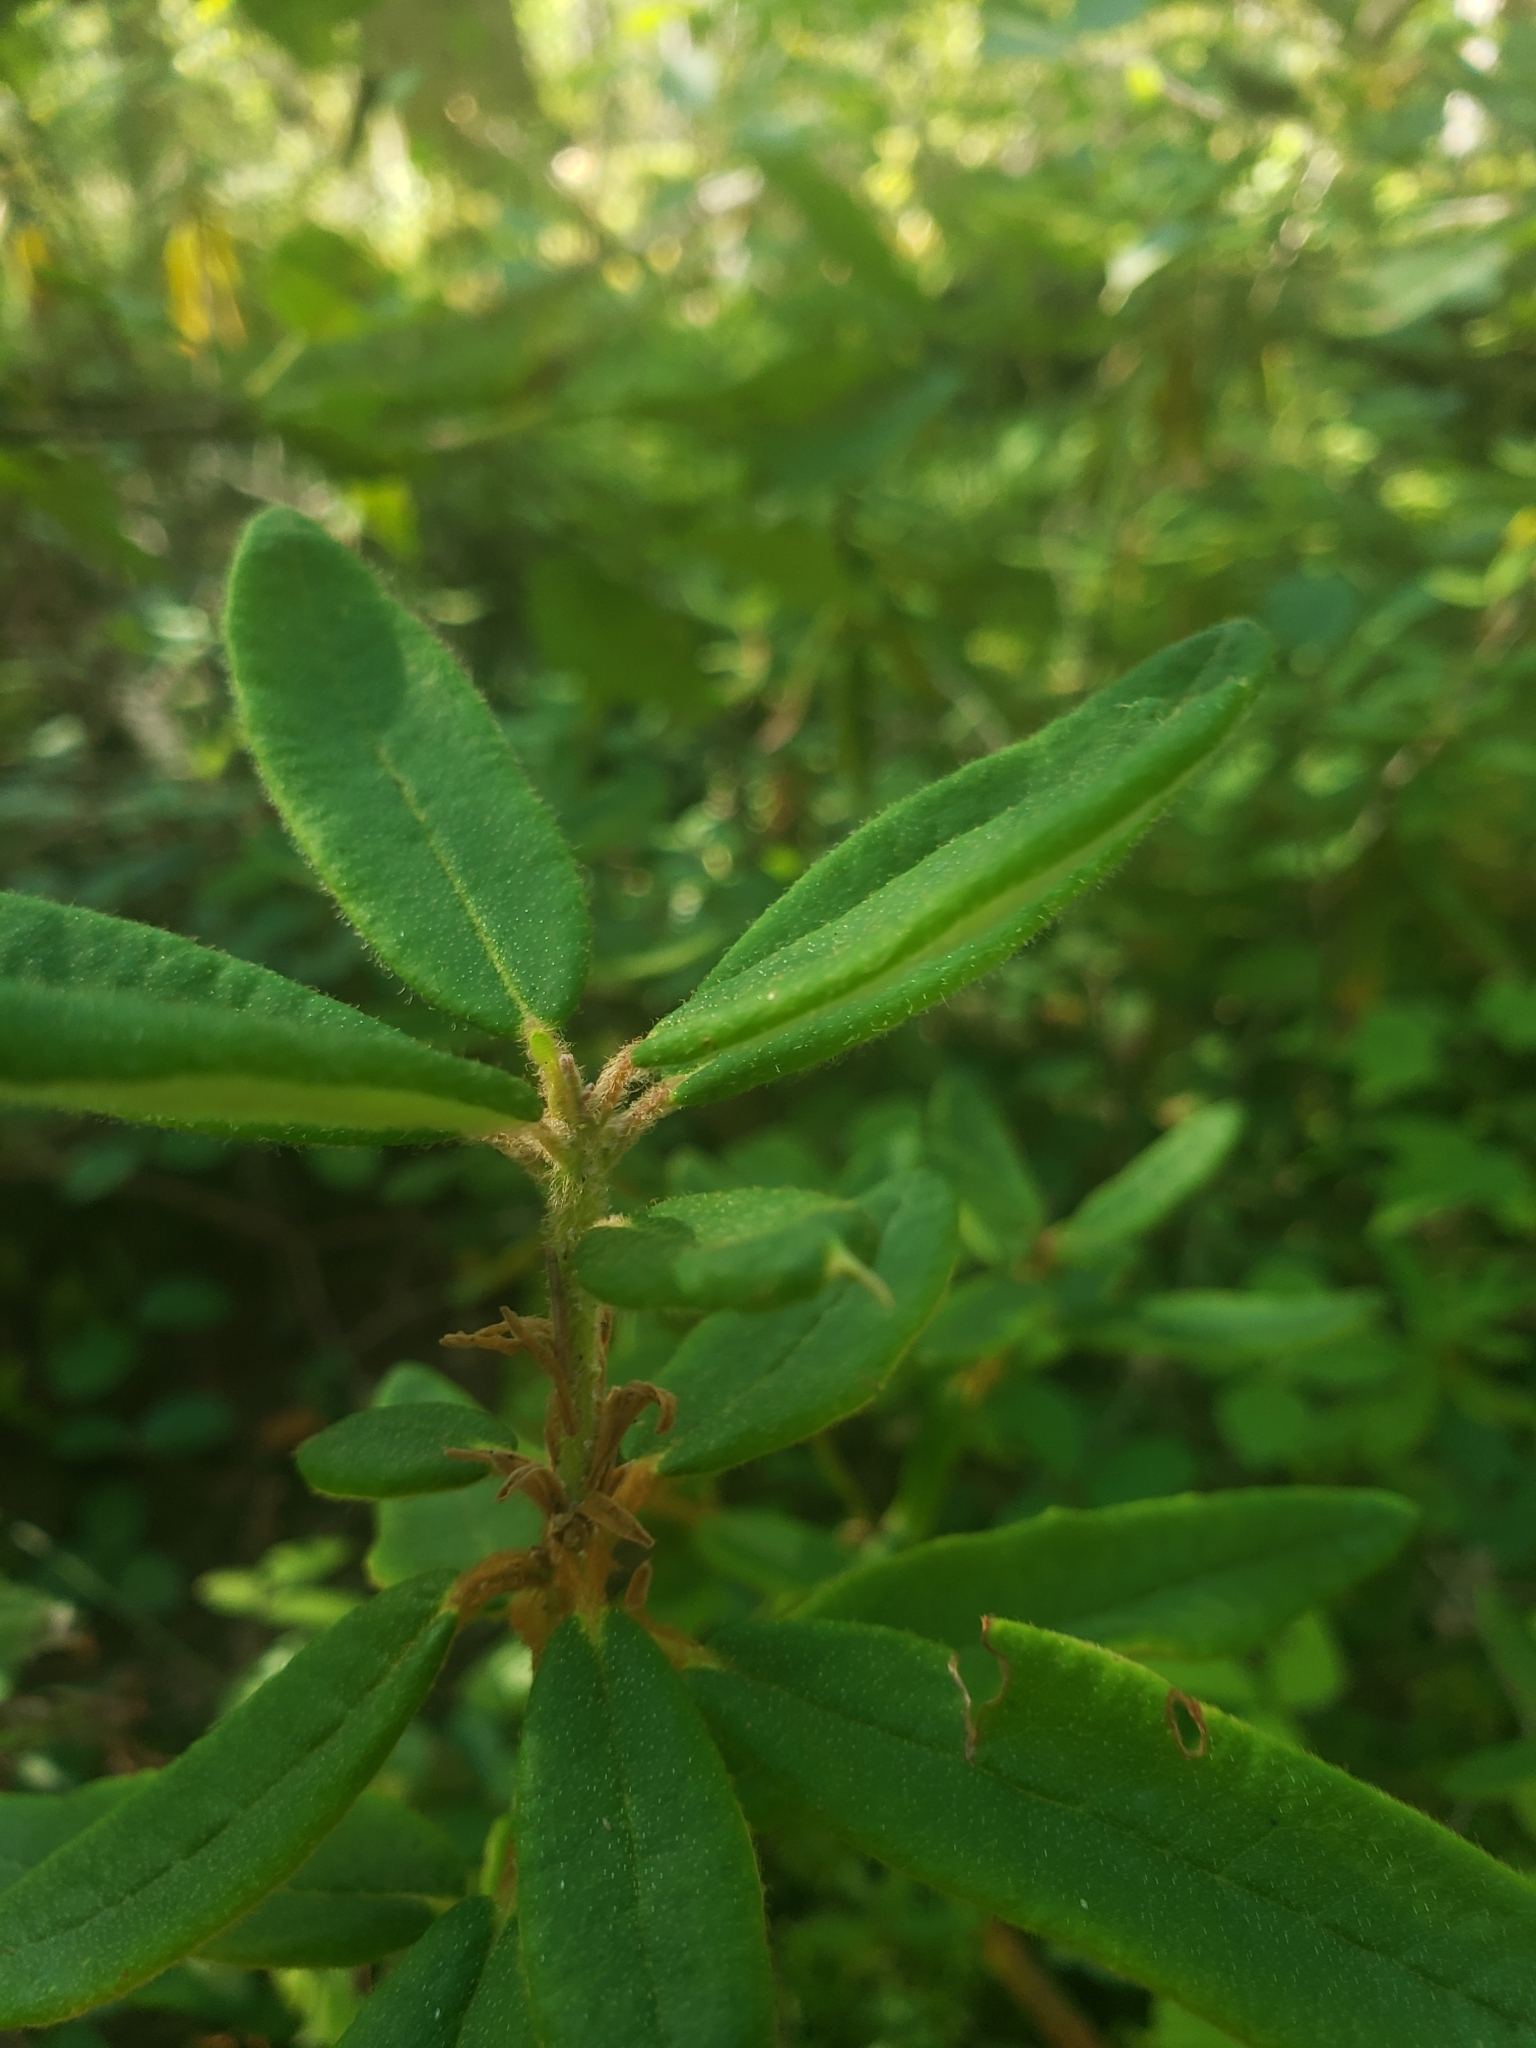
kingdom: Plantae
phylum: Tracheophyta
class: Magnoliopsida
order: Ericales
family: Ericaceae
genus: Rhododendron
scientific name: Rhododendron groenlandicum
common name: Bog labrador tea
